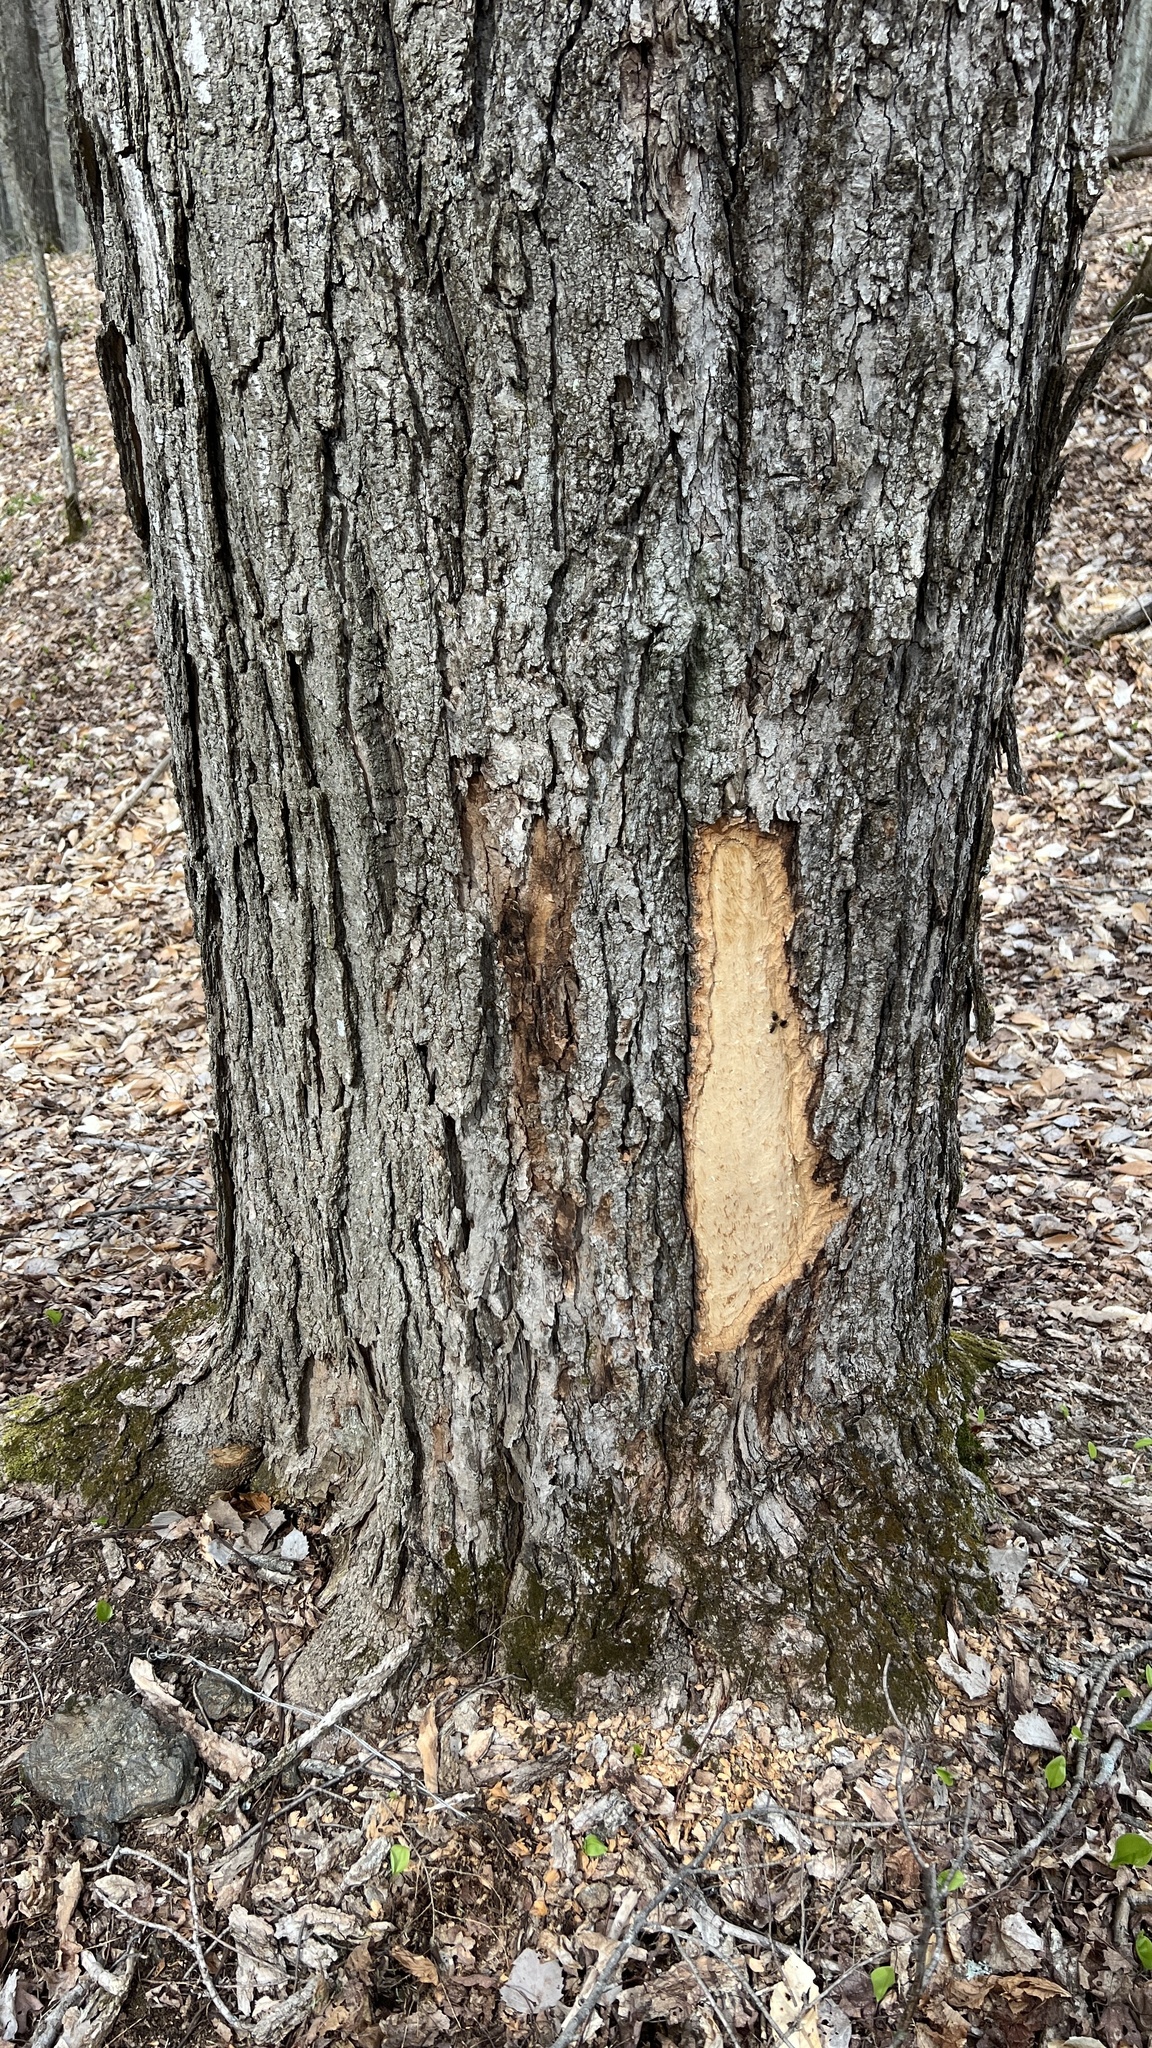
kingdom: Plantae
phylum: Tracheophyta
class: Magnoliopsida
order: Sapindales
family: Sapindaceae
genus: Acer
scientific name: Acer saccharum
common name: Sugar maple
